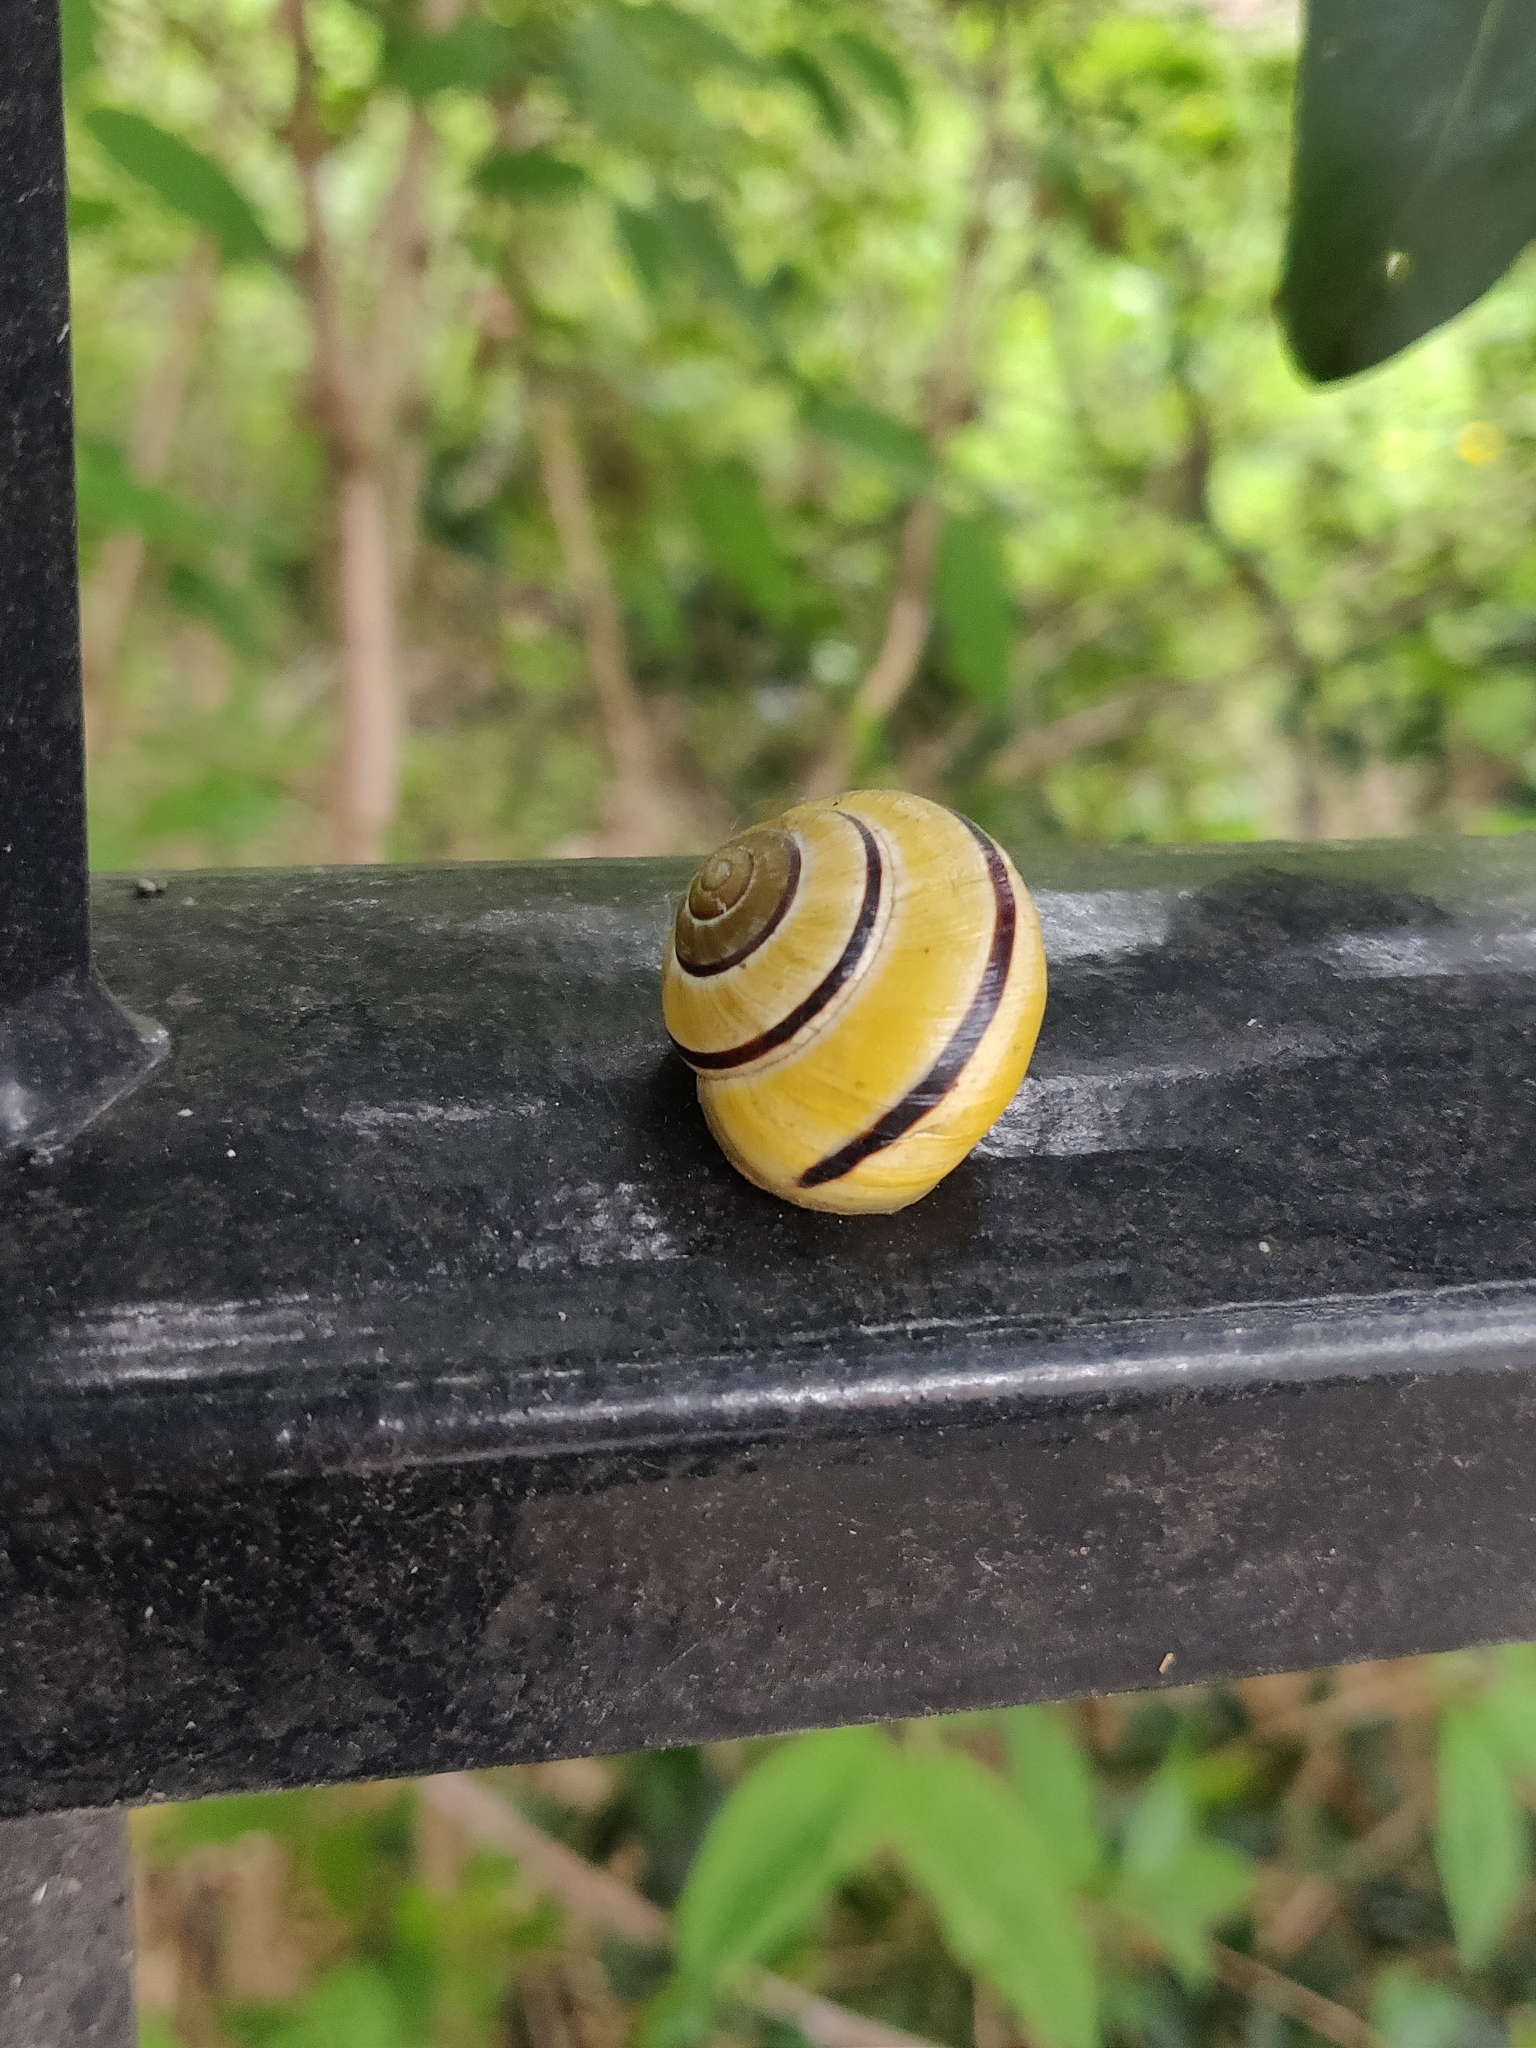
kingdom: Animalia
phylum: Mollusca
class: Gastropoda
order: Stylommatophora
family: Helicidae
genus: Cepaea
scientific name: Cepaea nemoralis
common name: Grovesnail
